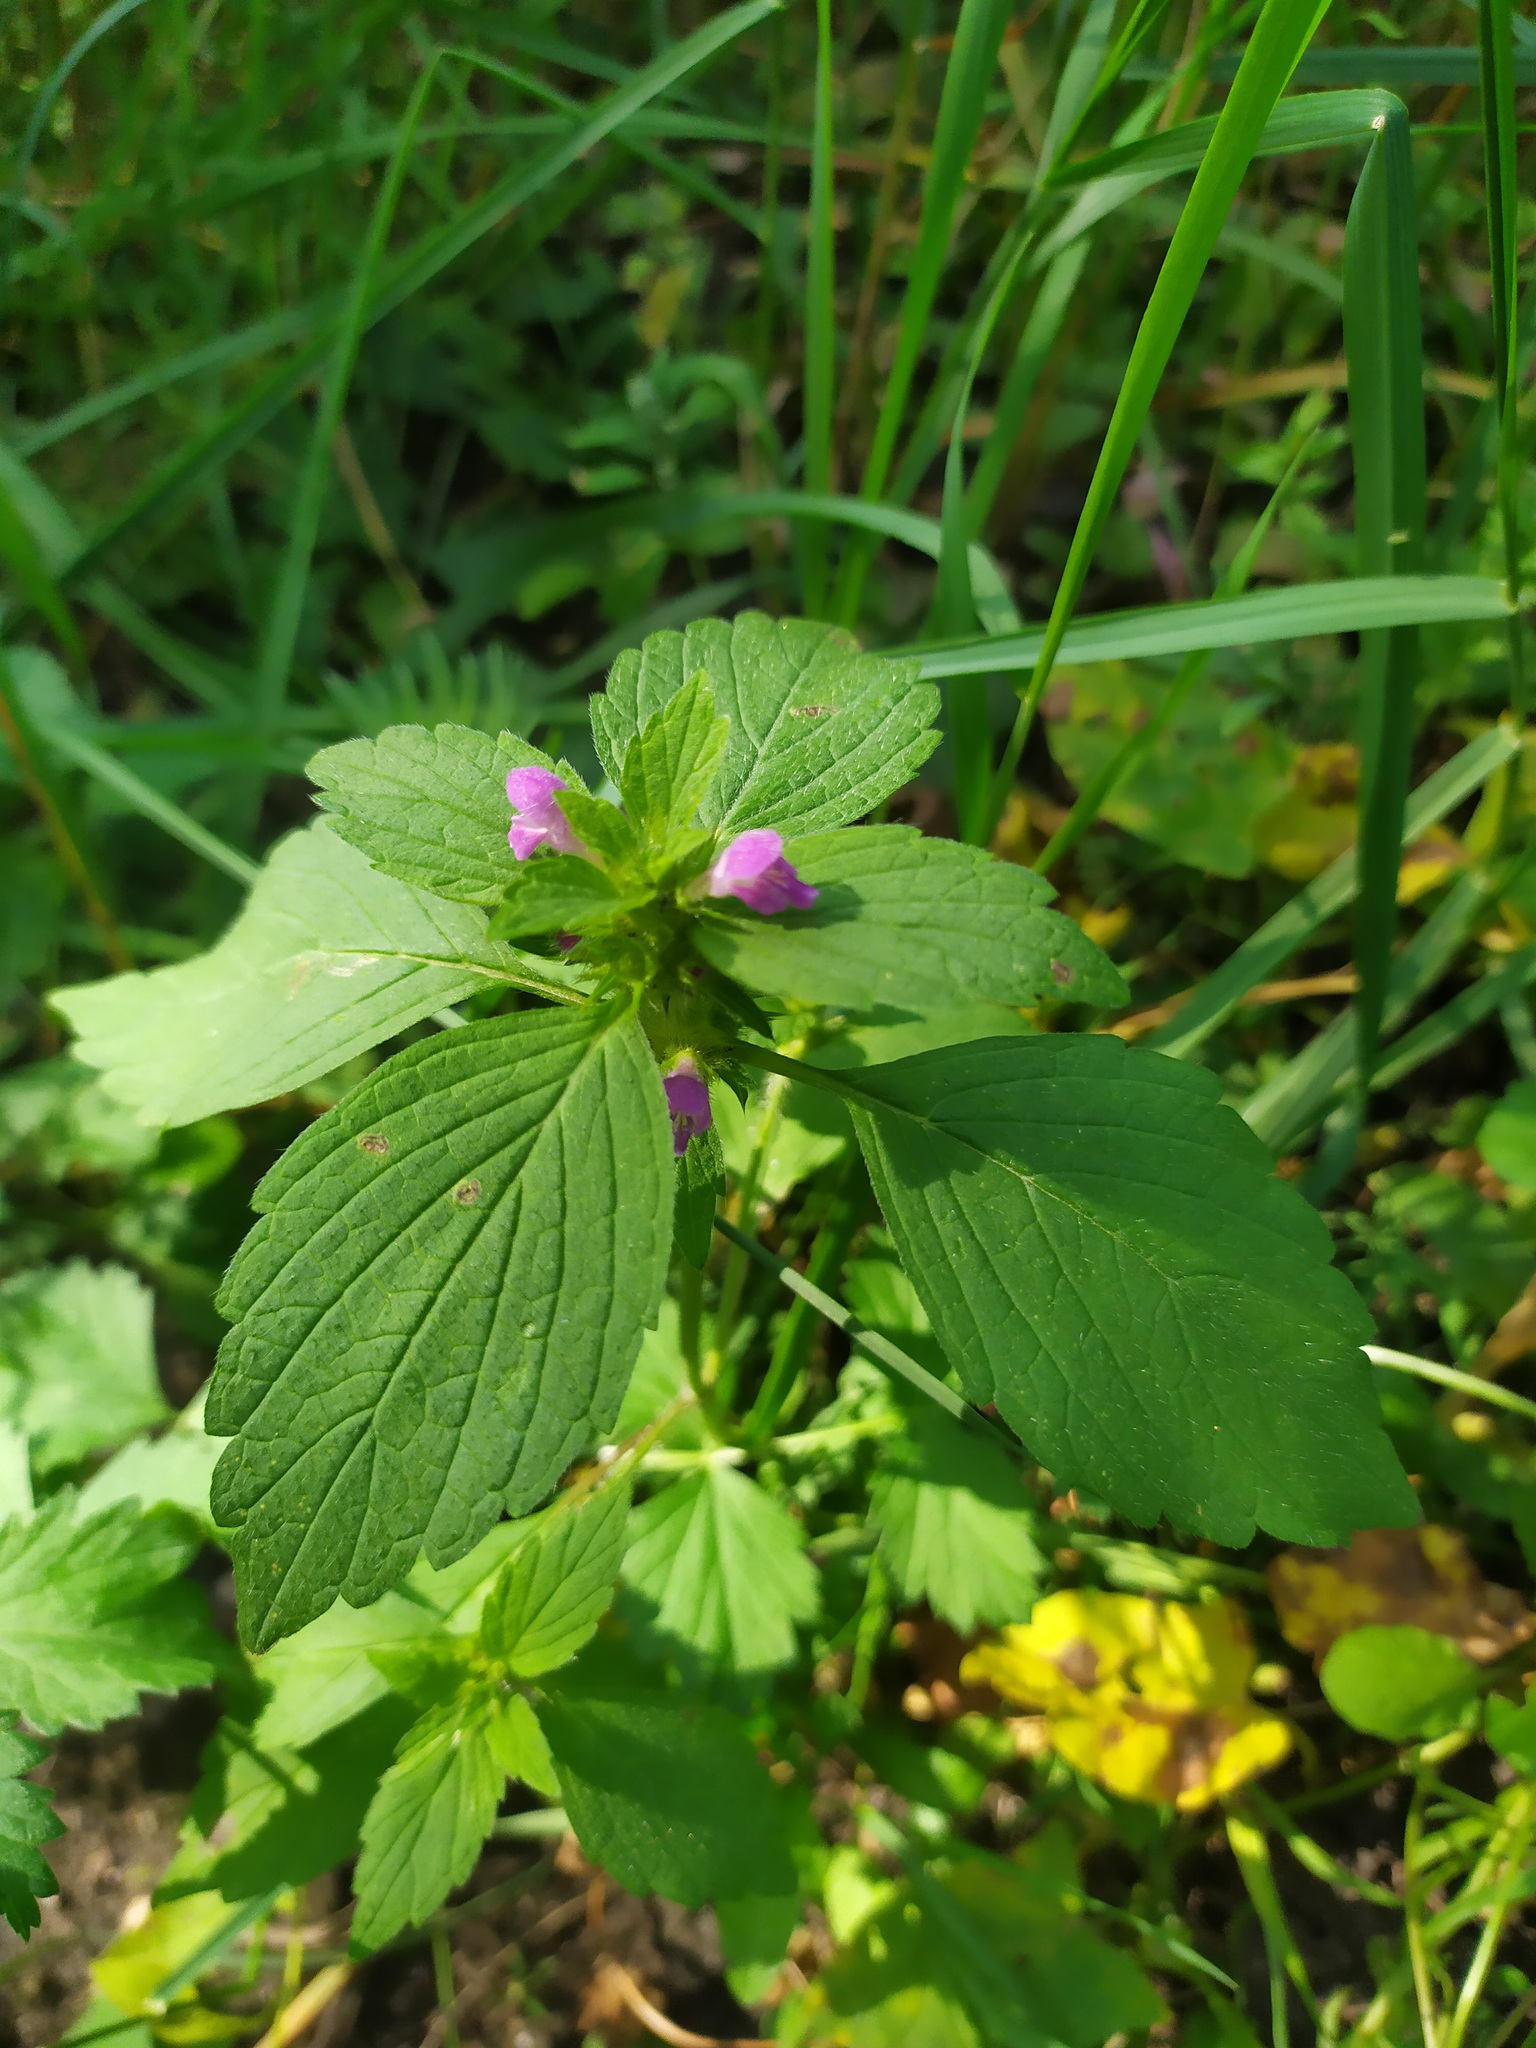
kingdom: Plantae
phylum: Tracheophyta
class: Magnoliopsida
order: Lamiales
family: Lamiaceae
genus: Galeopsis
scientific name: Galeopsis bifida
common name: Bifid hemp-nettle
